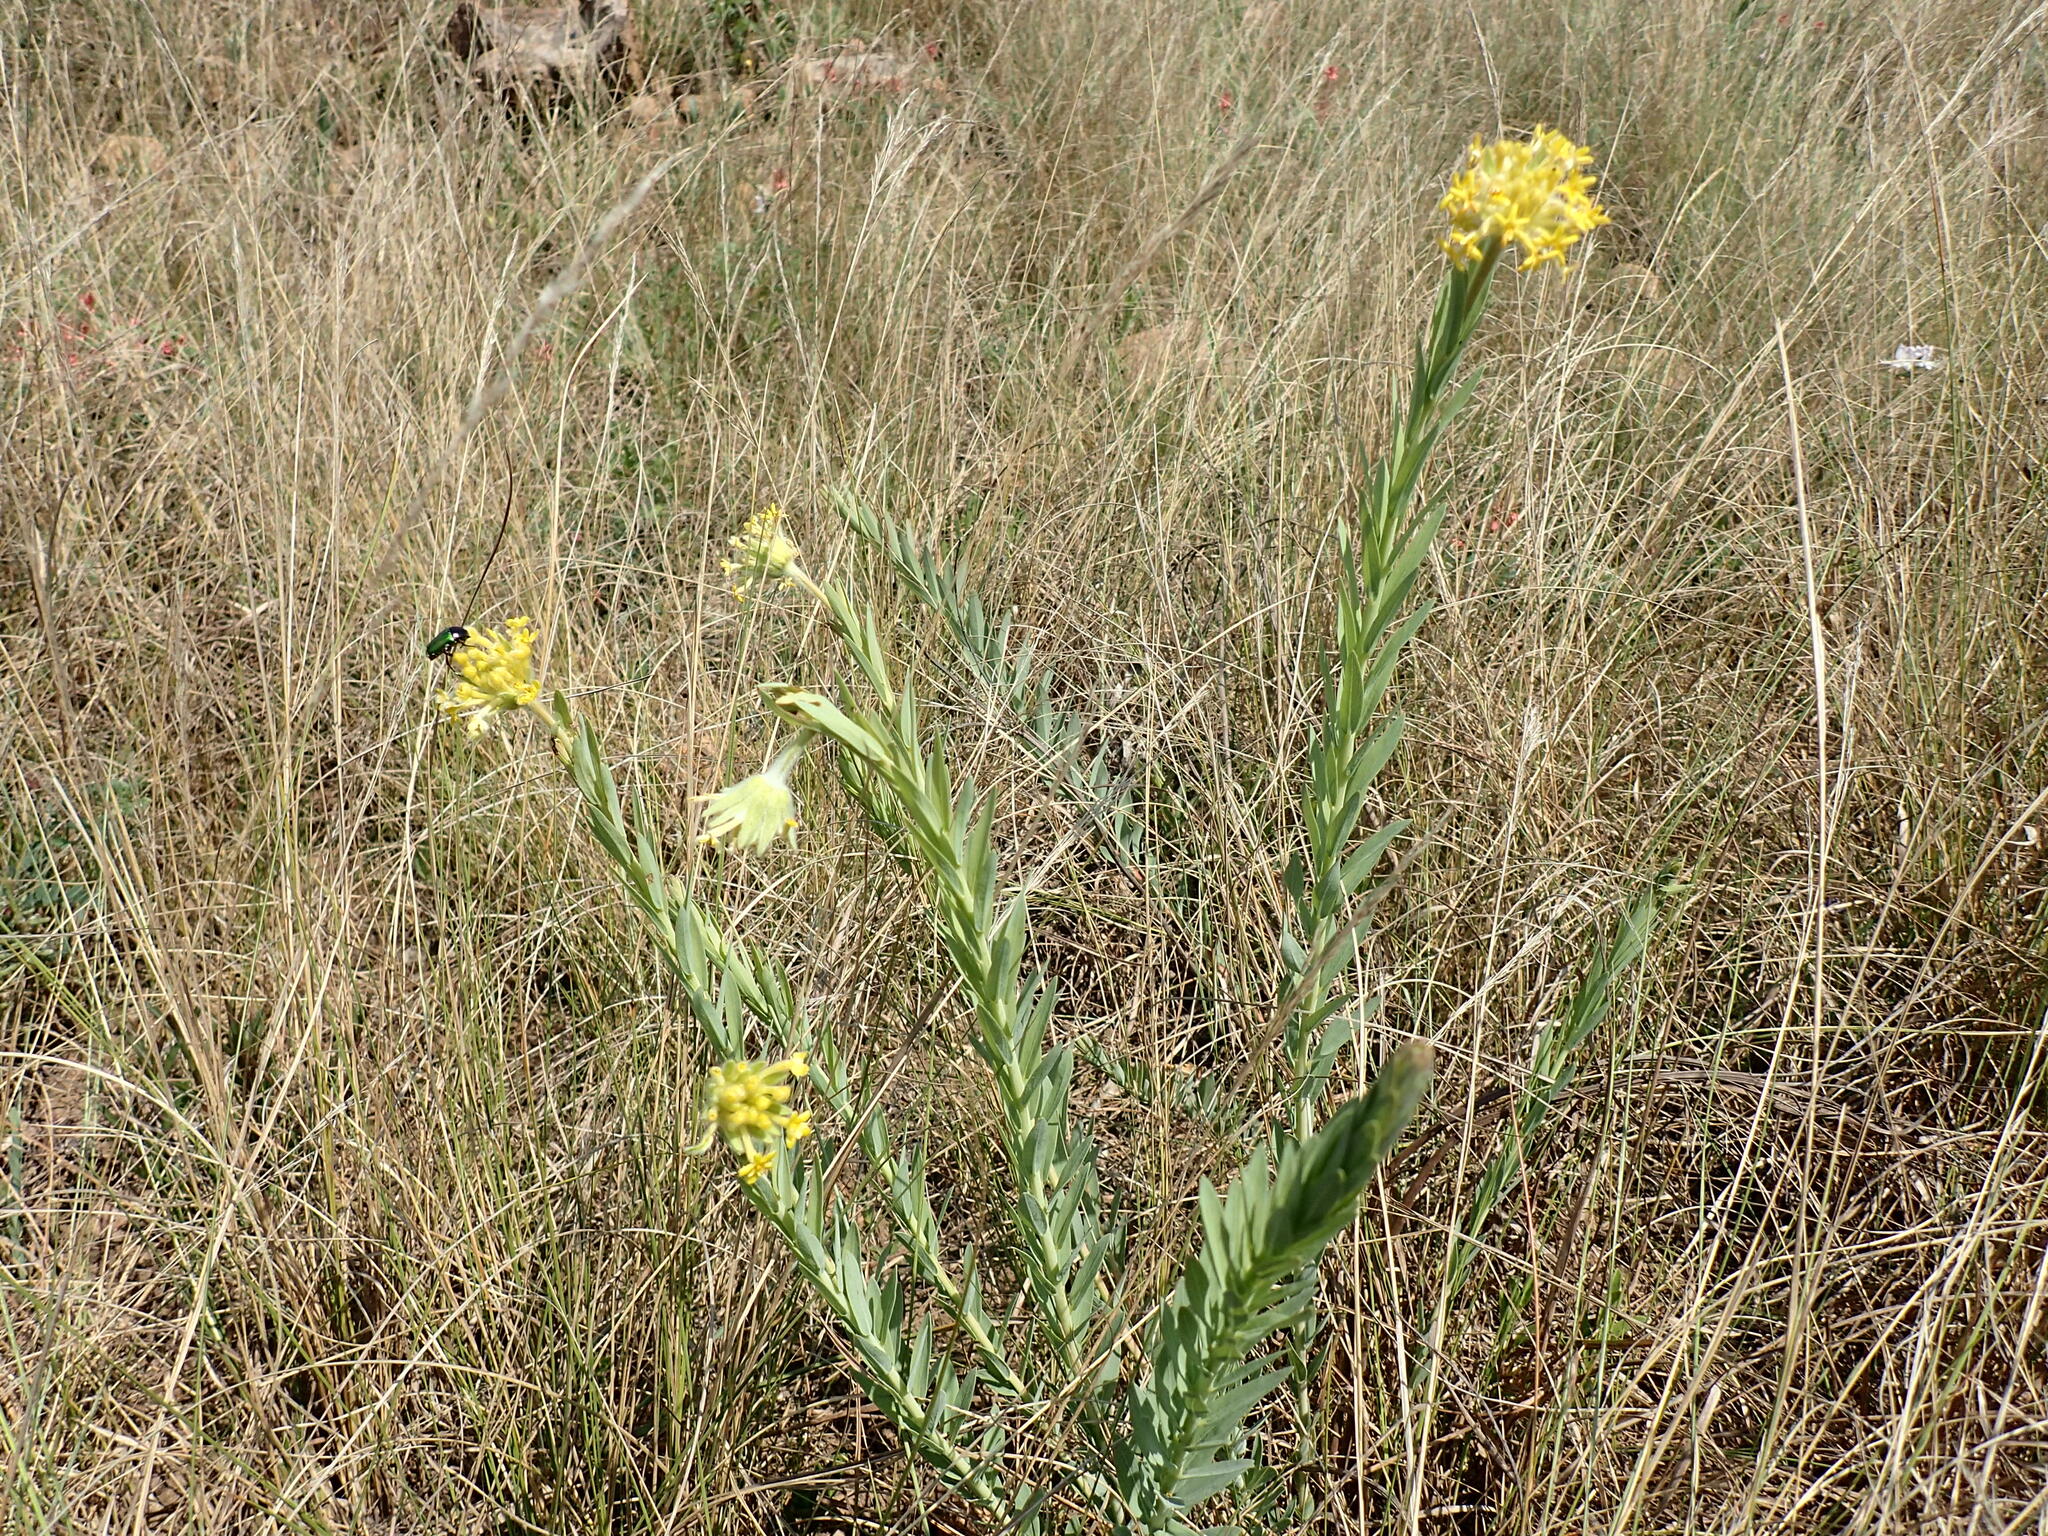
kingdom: Plantae
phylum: Tracheophyta
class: Magnoliopsida
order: Malvales
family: Thymelaeaceae
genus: Gnidia
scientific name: Gnidia kraussiana
